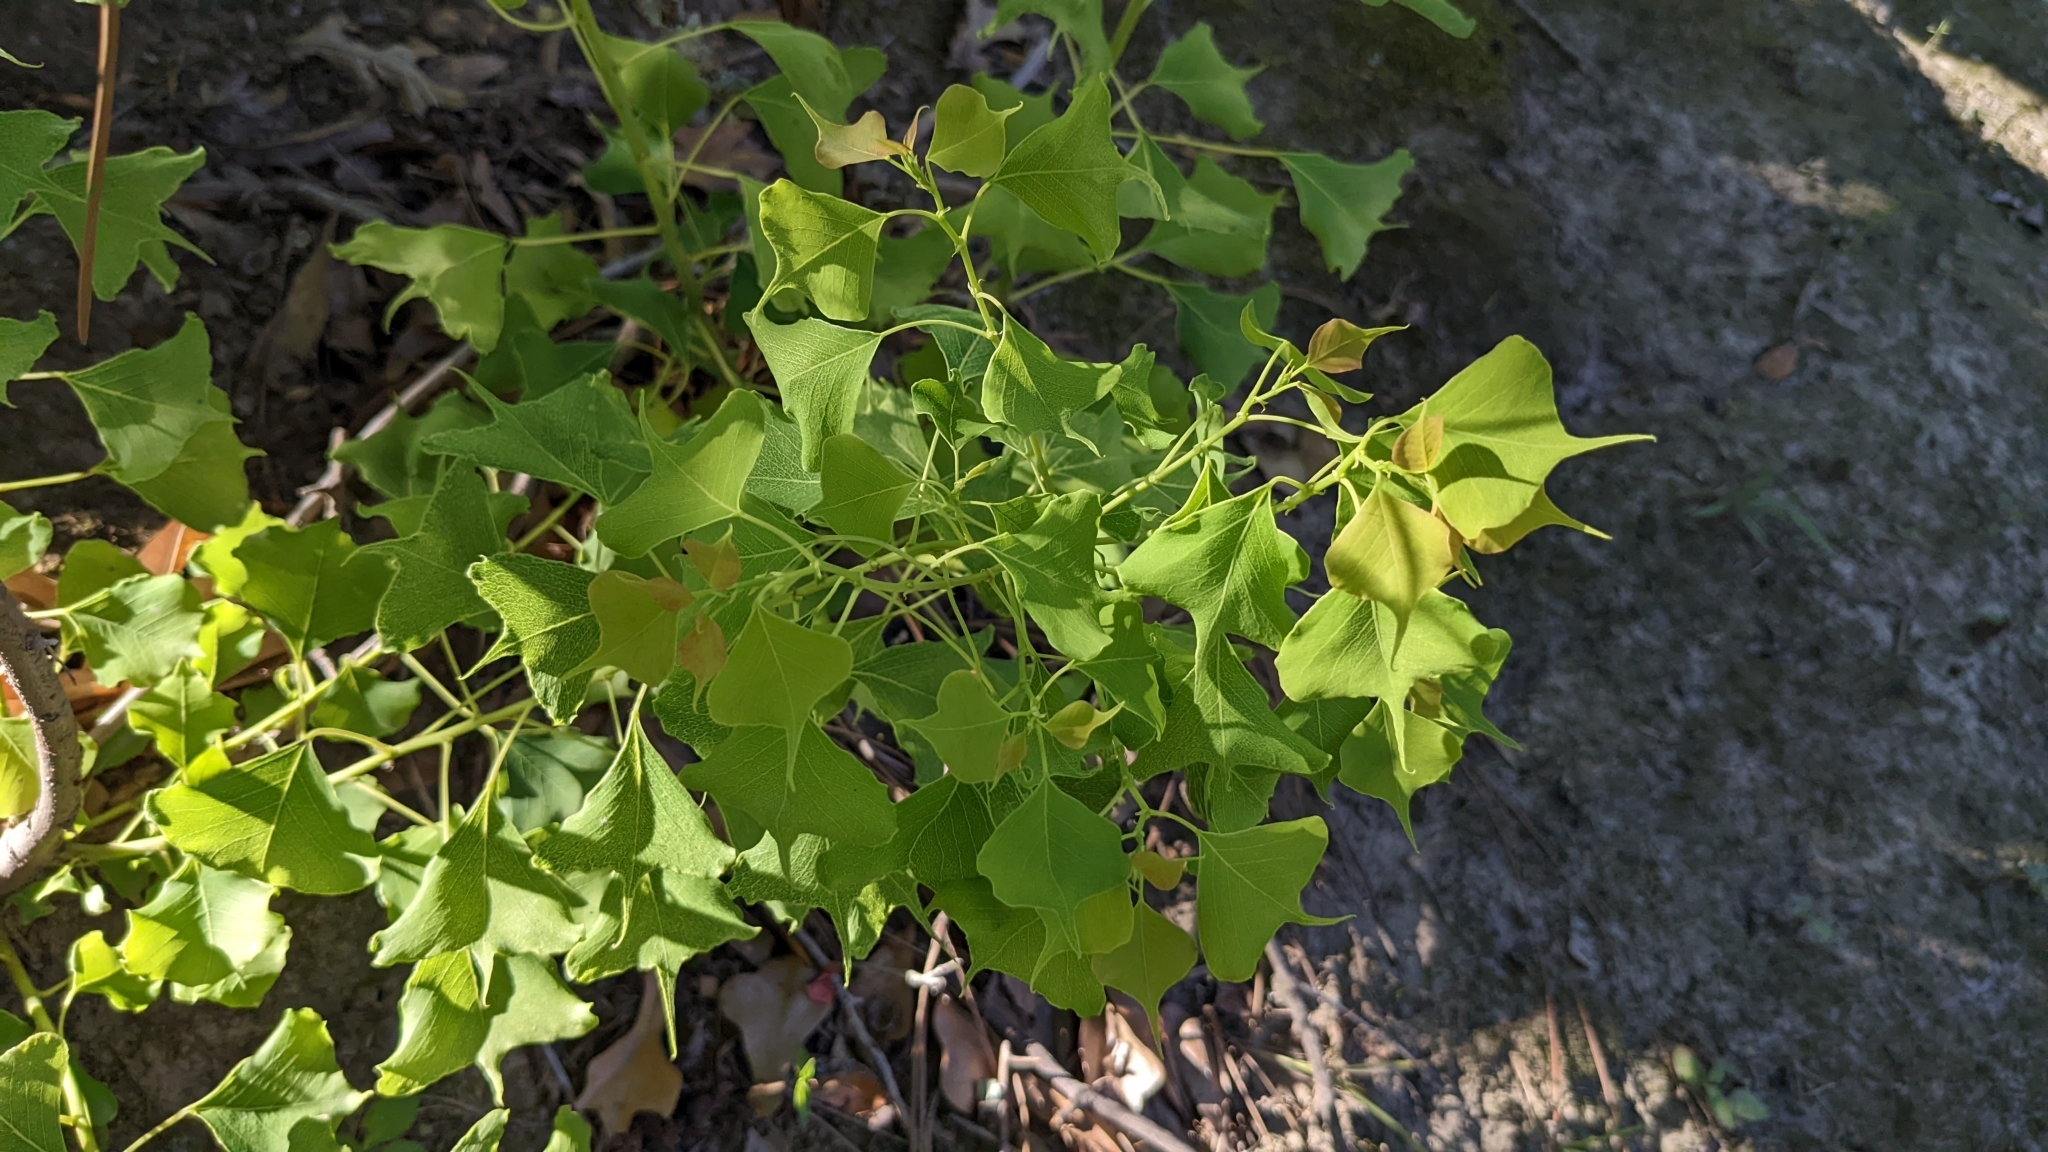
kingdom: Plantae
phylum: Tracheophyta
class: Magnoliopsida
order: Malpighiales
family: Euphorbiaceae
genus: Triadica
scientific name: Triadica sebifera
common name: Chinese tallow
